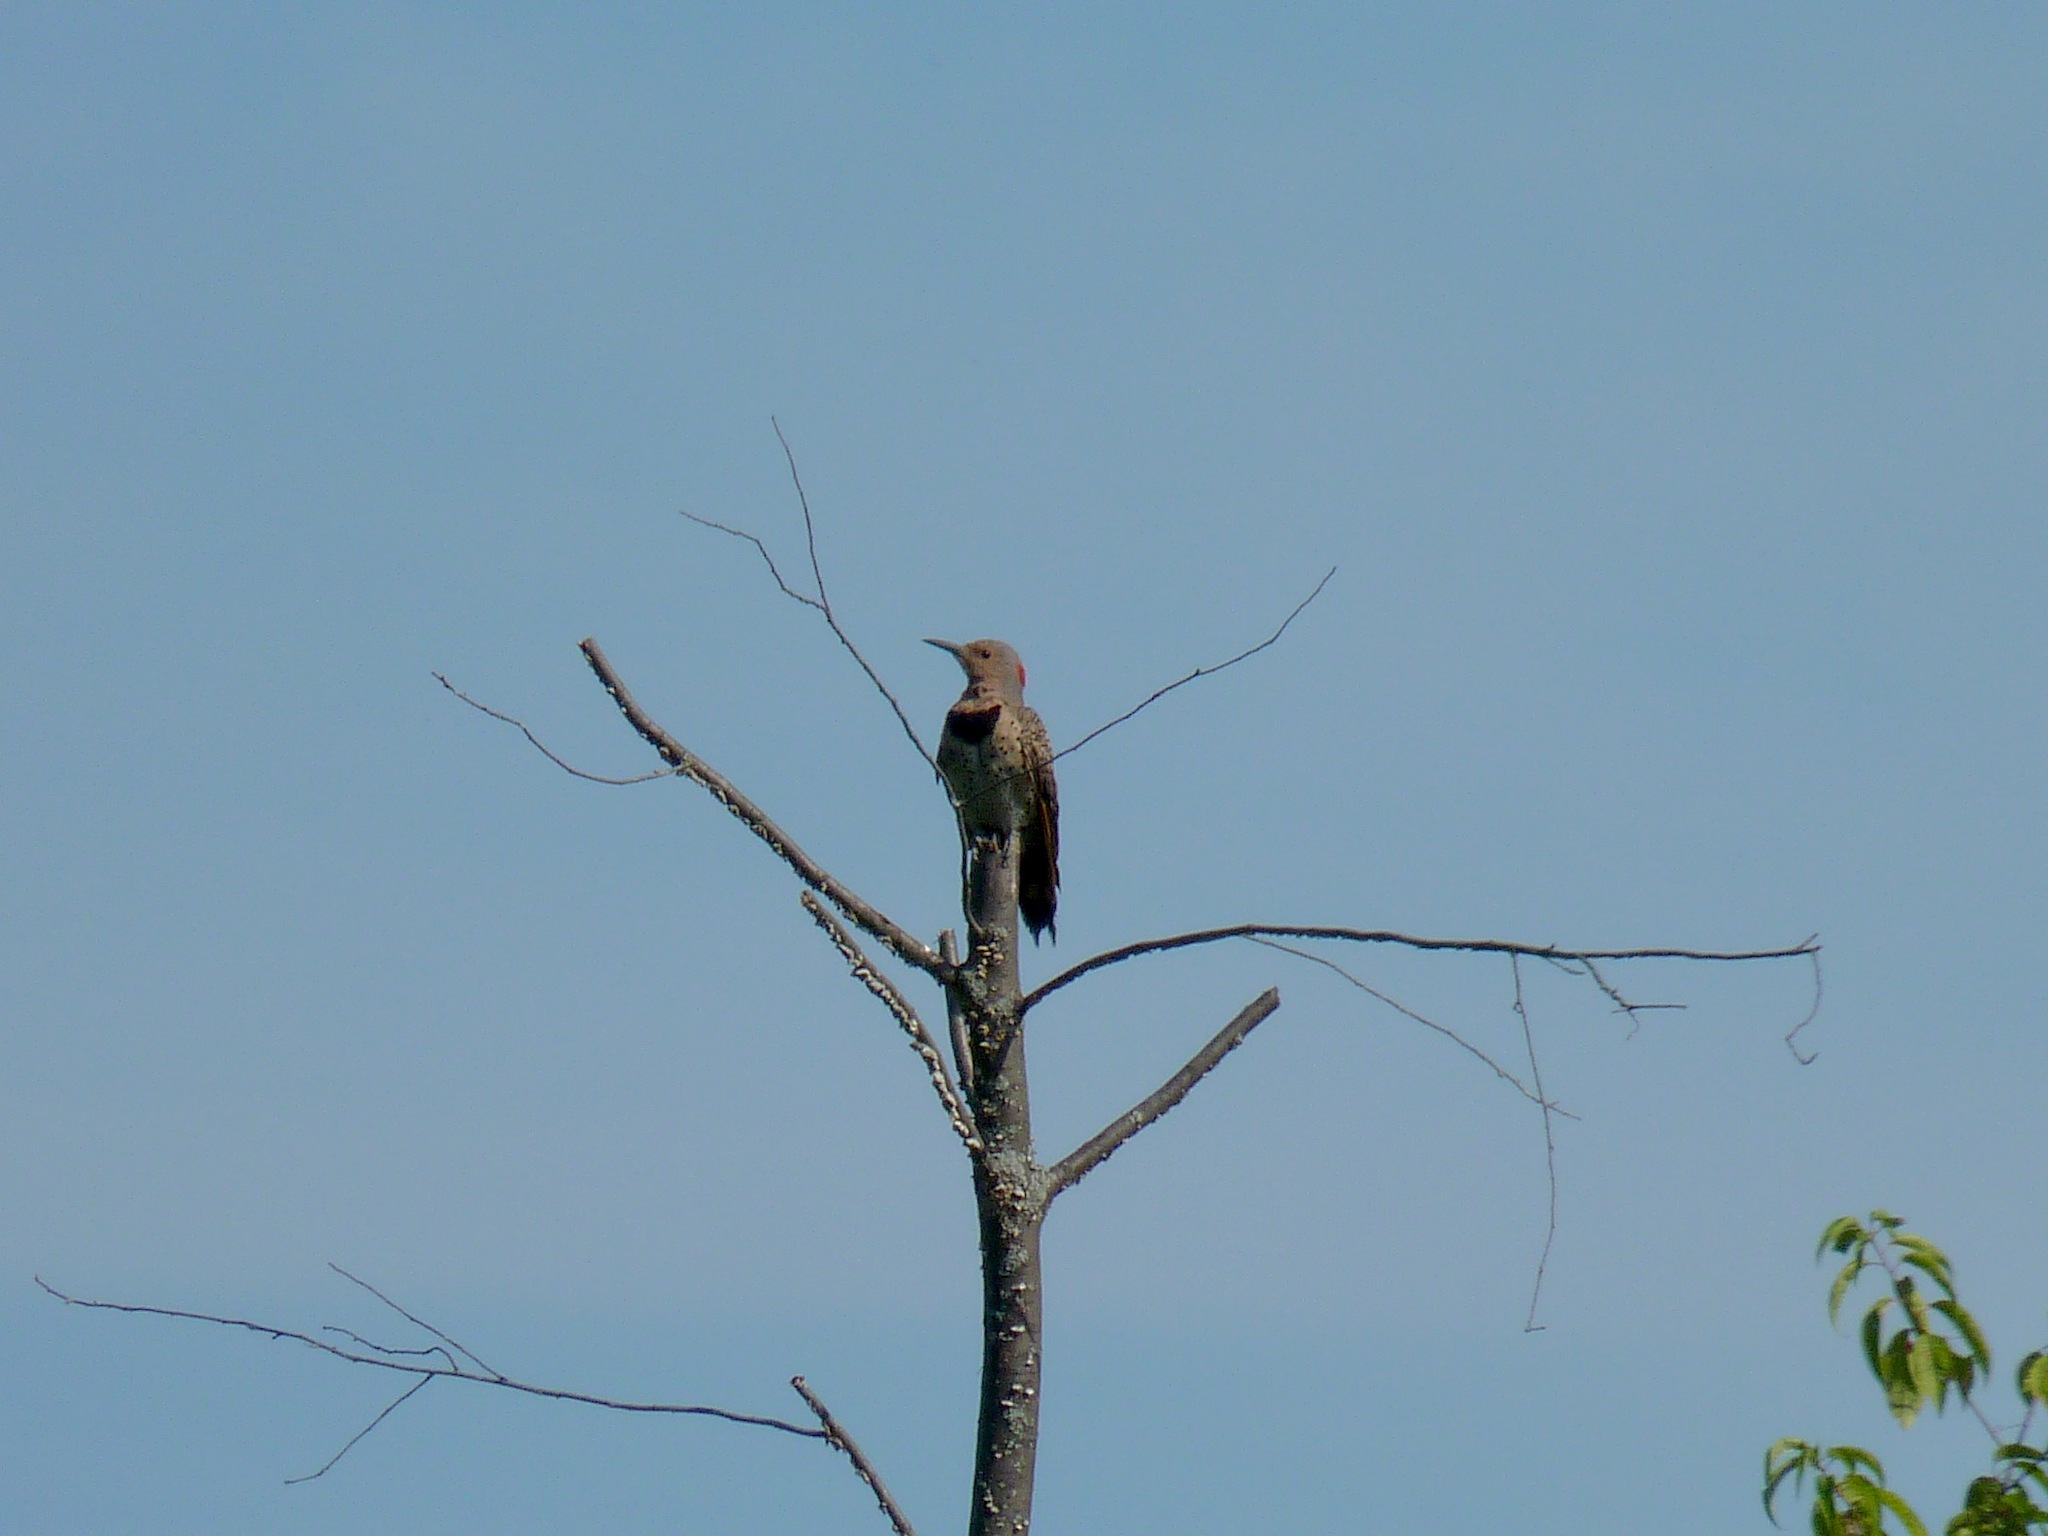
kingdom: Animalia
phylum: Chordata
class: Aves
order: Piciformes
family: Picidae
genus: Colaptes
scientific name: Colaptes auratus
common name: Northern flicker
